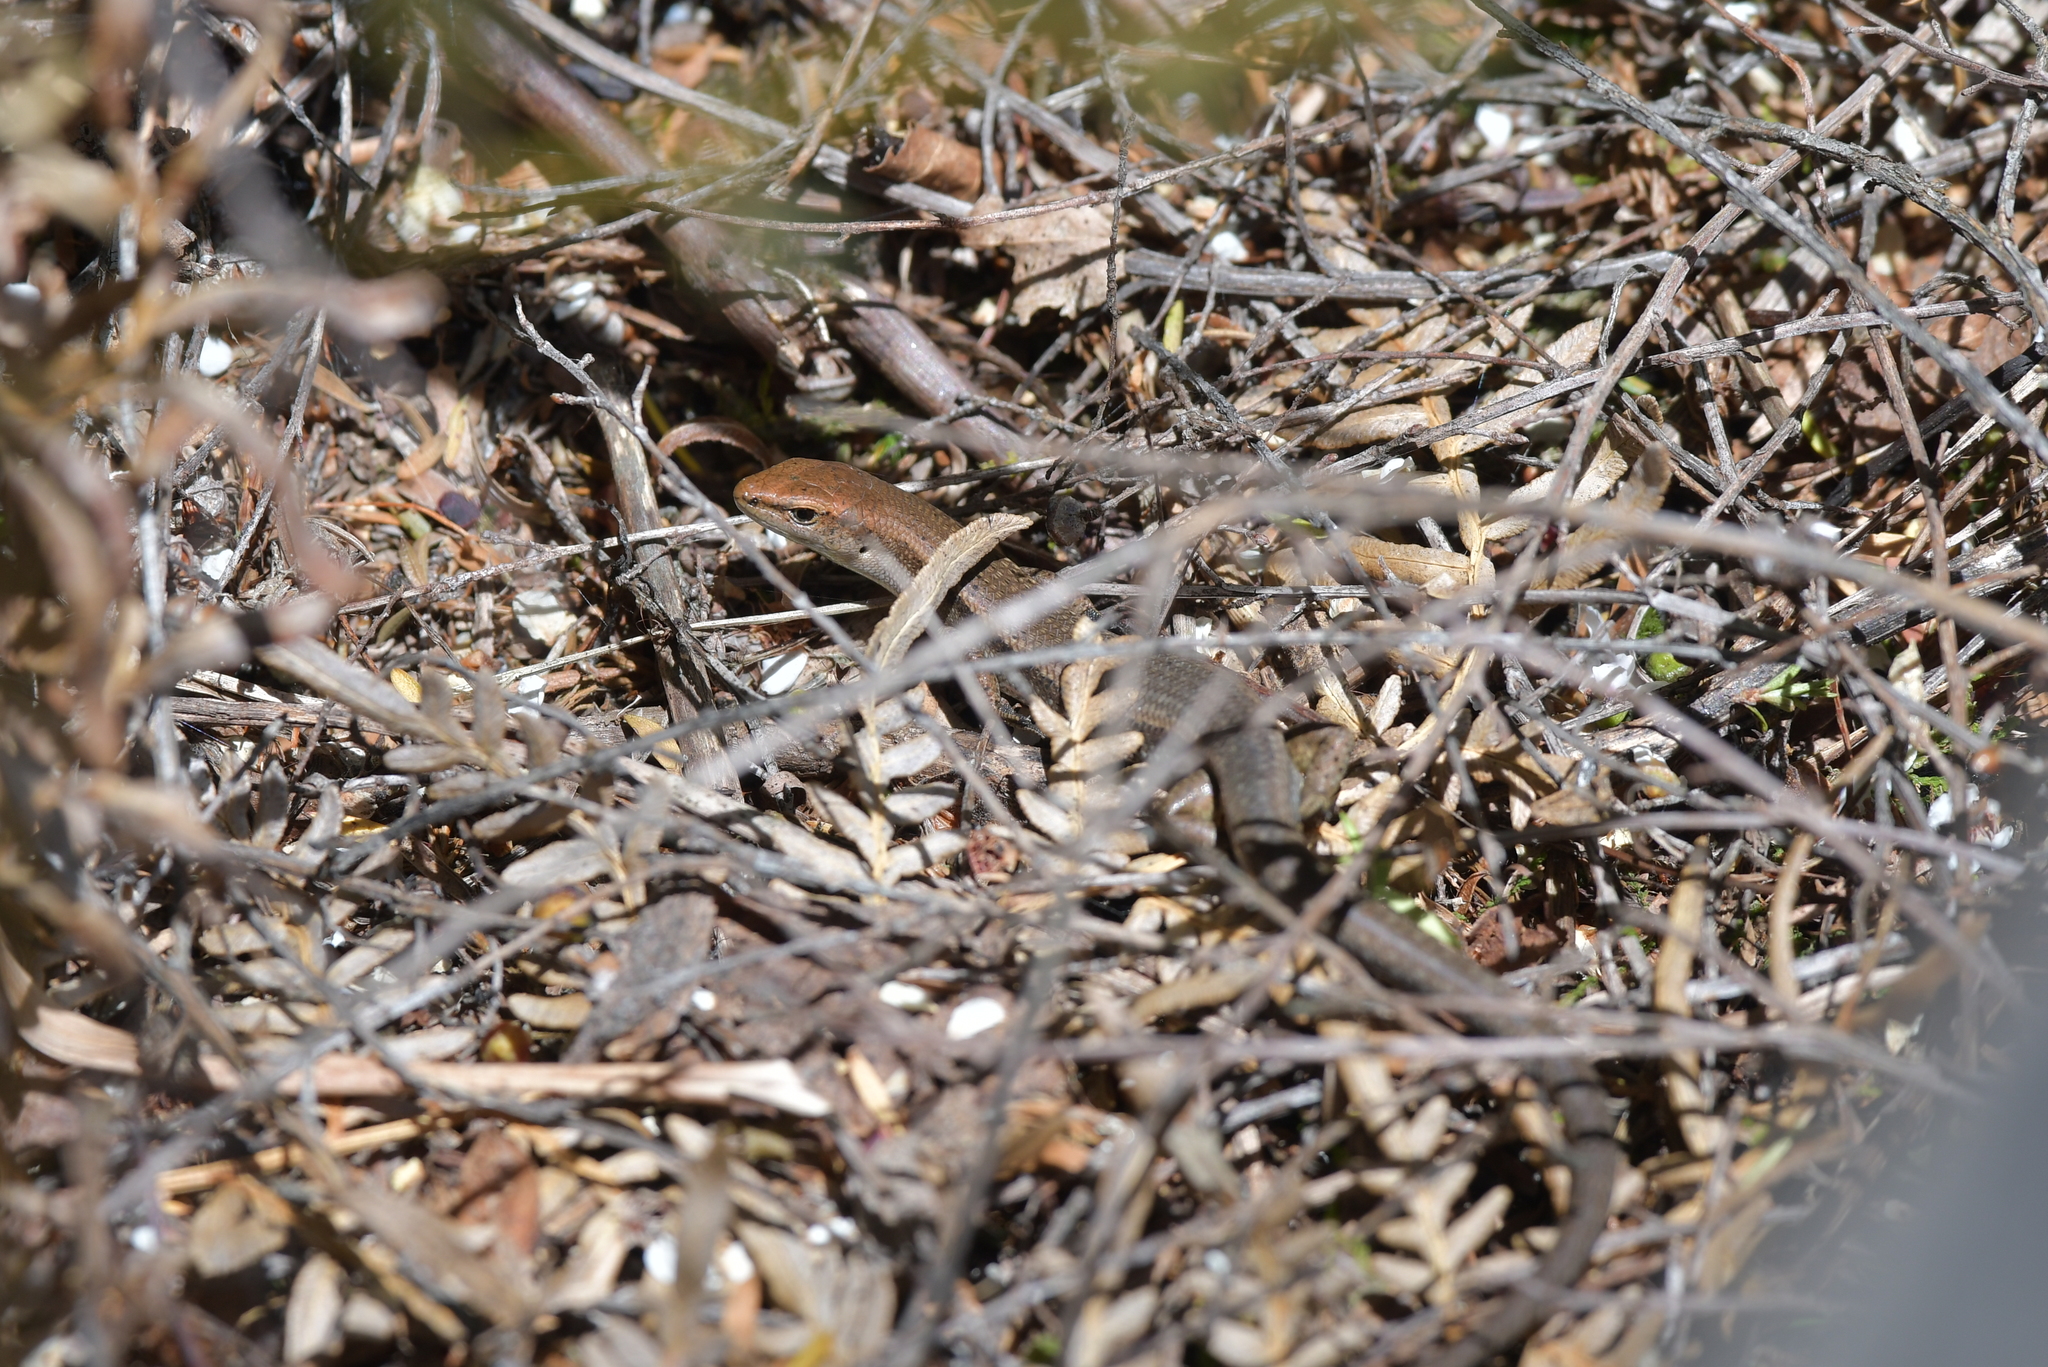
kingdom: Animalia
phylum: Chordata
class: Squamata
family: Scincidae
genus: Lampropholis
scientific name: Lampropholis delicata
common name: Plague skink
